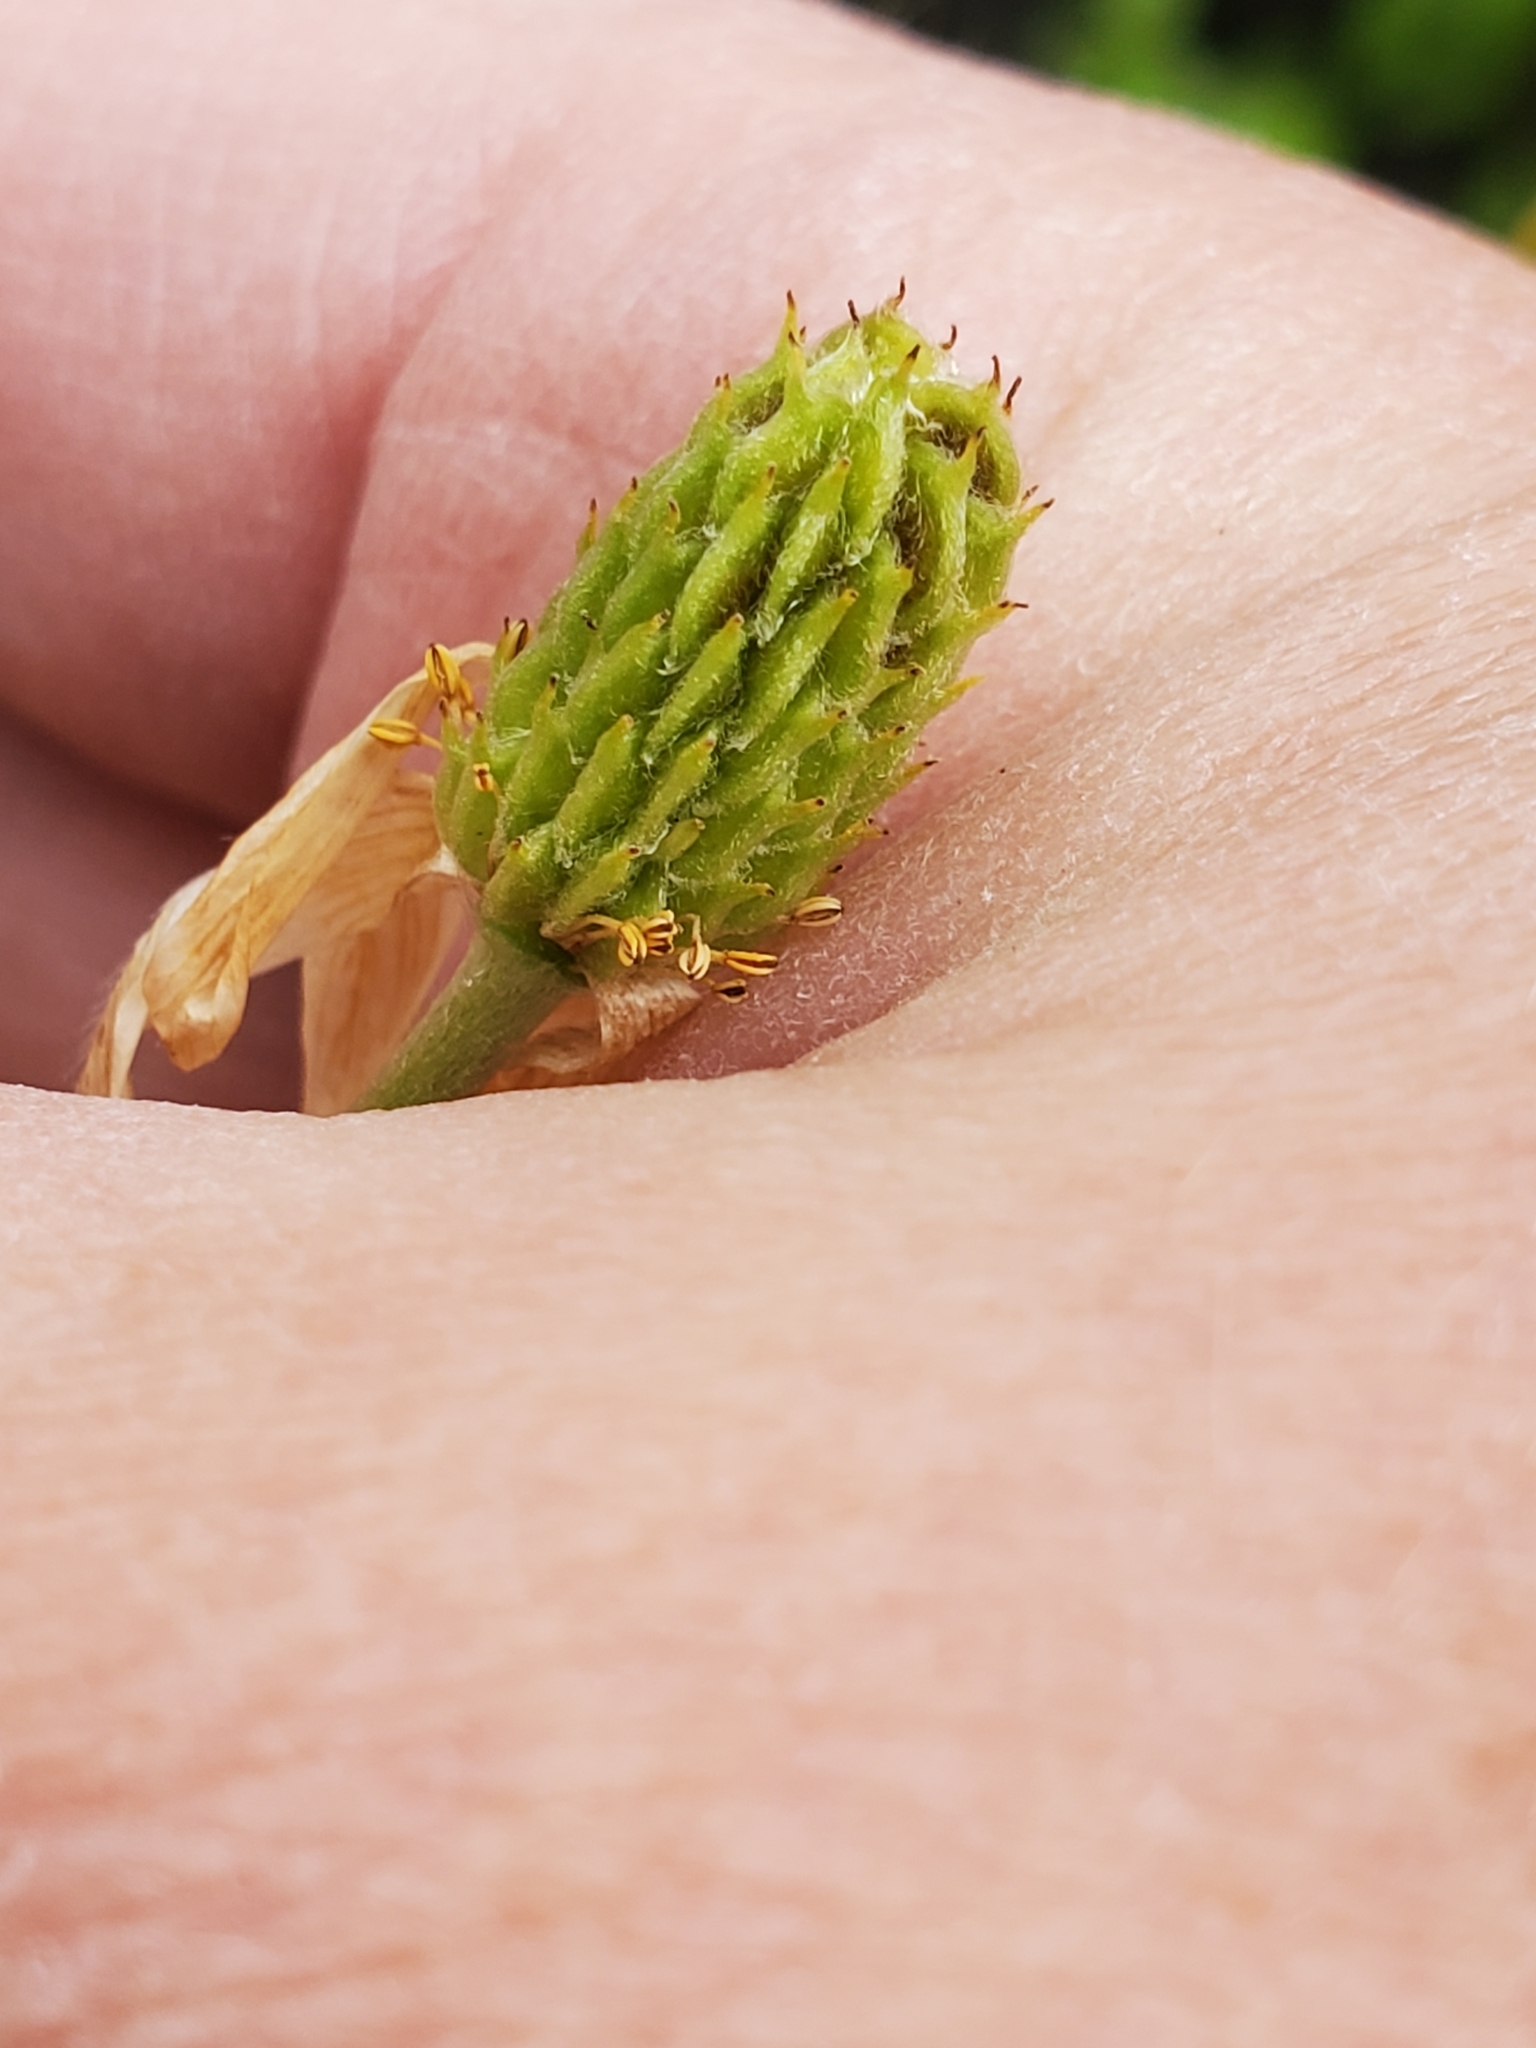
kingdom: Plantae
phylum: Tracheophyta
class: Magnoliopsida
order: Ranunculales
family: Ranunculaceae
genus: Anemone
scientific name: Anemone edwardsiana
